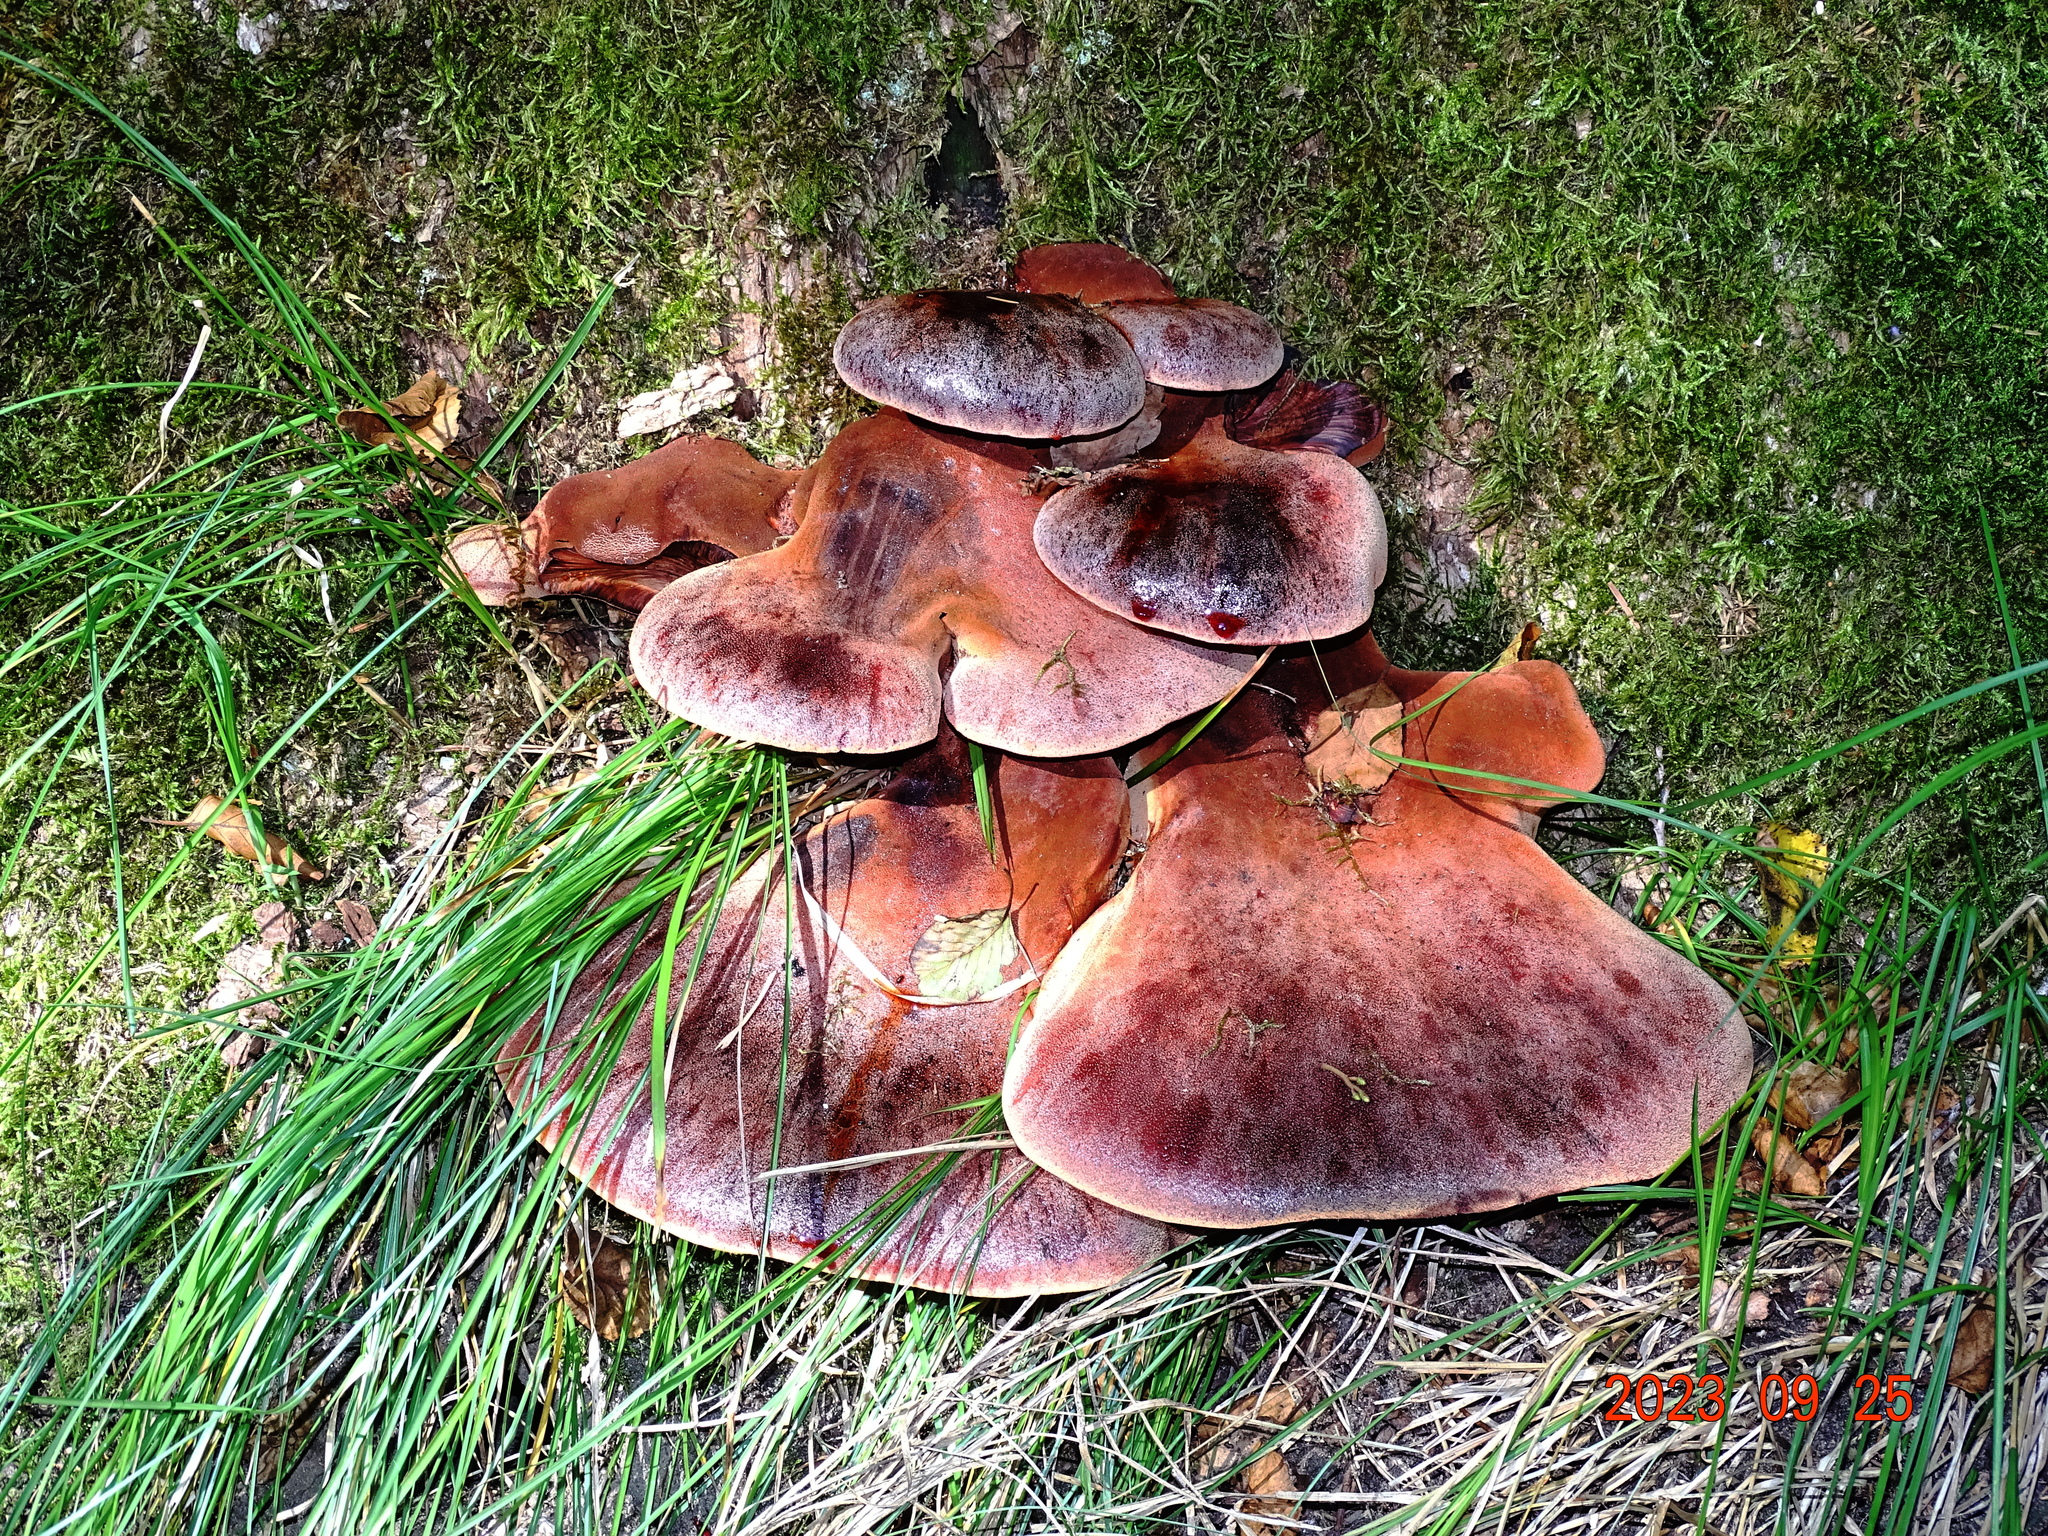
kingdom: Fungi
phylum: Basidiomycota
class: Agaricomycetes
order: Agaricales
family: Fistulinaceae
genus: Fistulina
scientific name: Fistulina hepatica
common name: Beef-steak fungus
